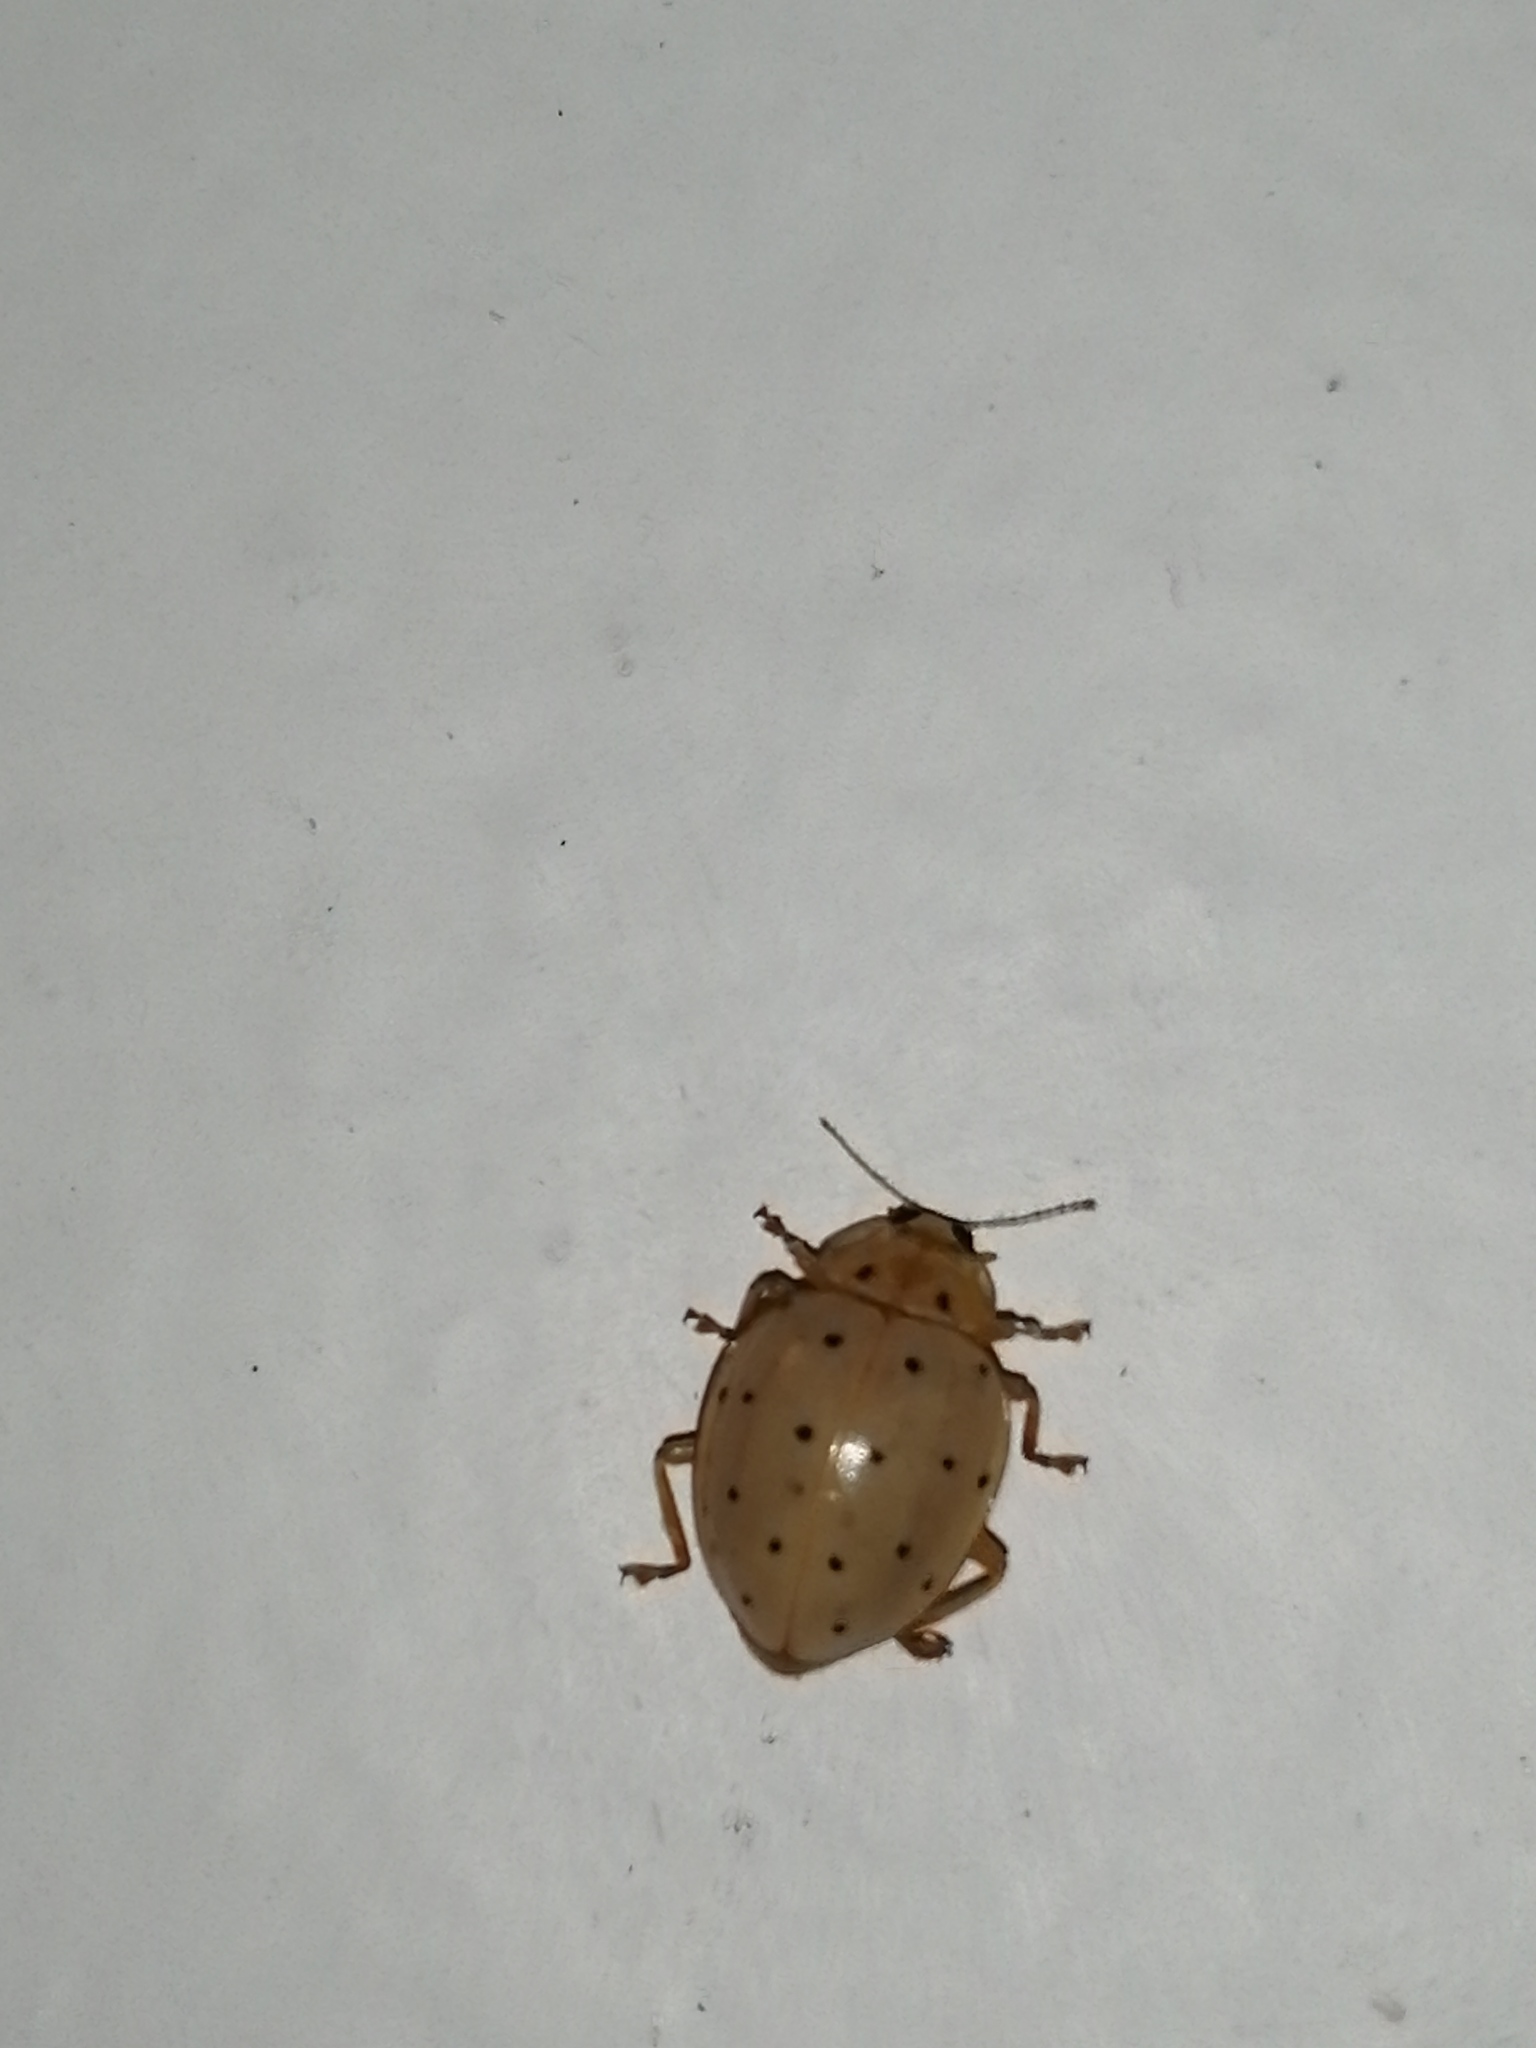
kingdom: Animalia
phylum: Arthropoda
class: Insecta
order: Coleoptera
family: Coccinellidae
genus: Neohalyzia
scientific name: Neohalyzia
